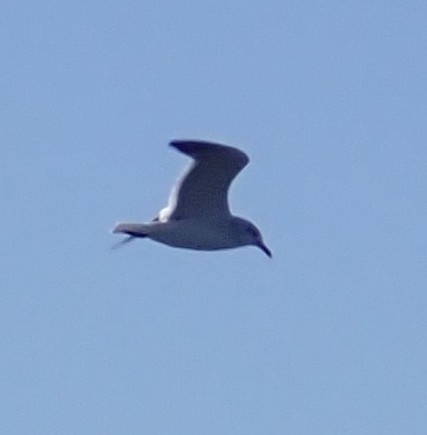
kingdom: Animalia
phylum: Chordata
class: Aves
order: Charadriiformes
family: Laridae
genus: Leucophaeus
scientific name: Leucophaeus atricilla
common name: Laughing gull
